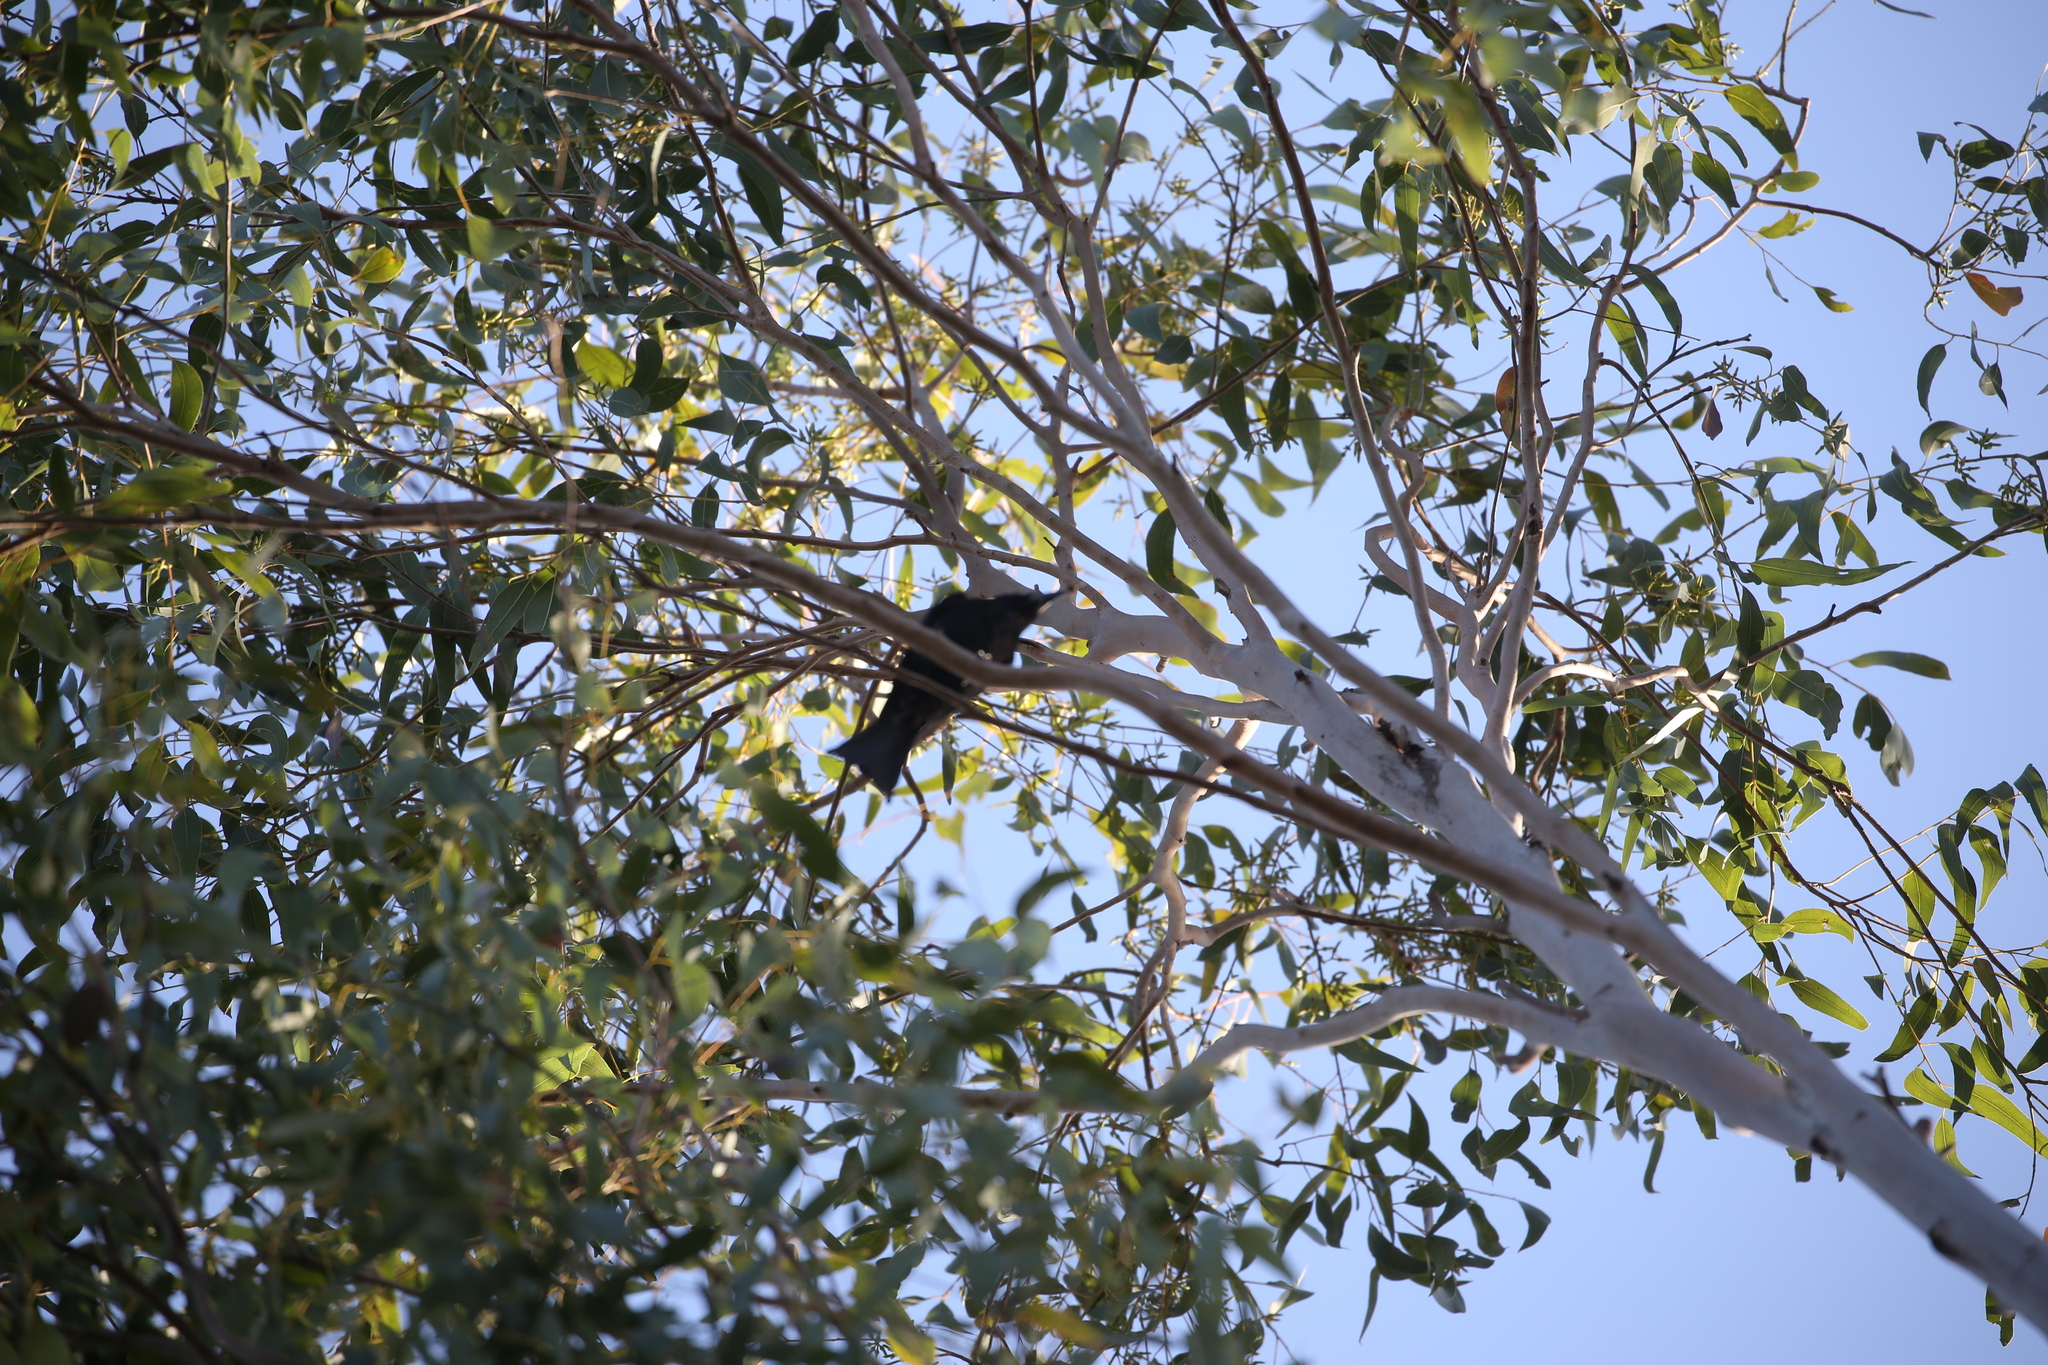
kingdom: Animalia
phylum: Chordata
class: Aves
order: Passeriformes
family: Dicruridae
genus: Dicrurus
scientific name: Dicrurus bracteatus
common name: Spangled drongo
